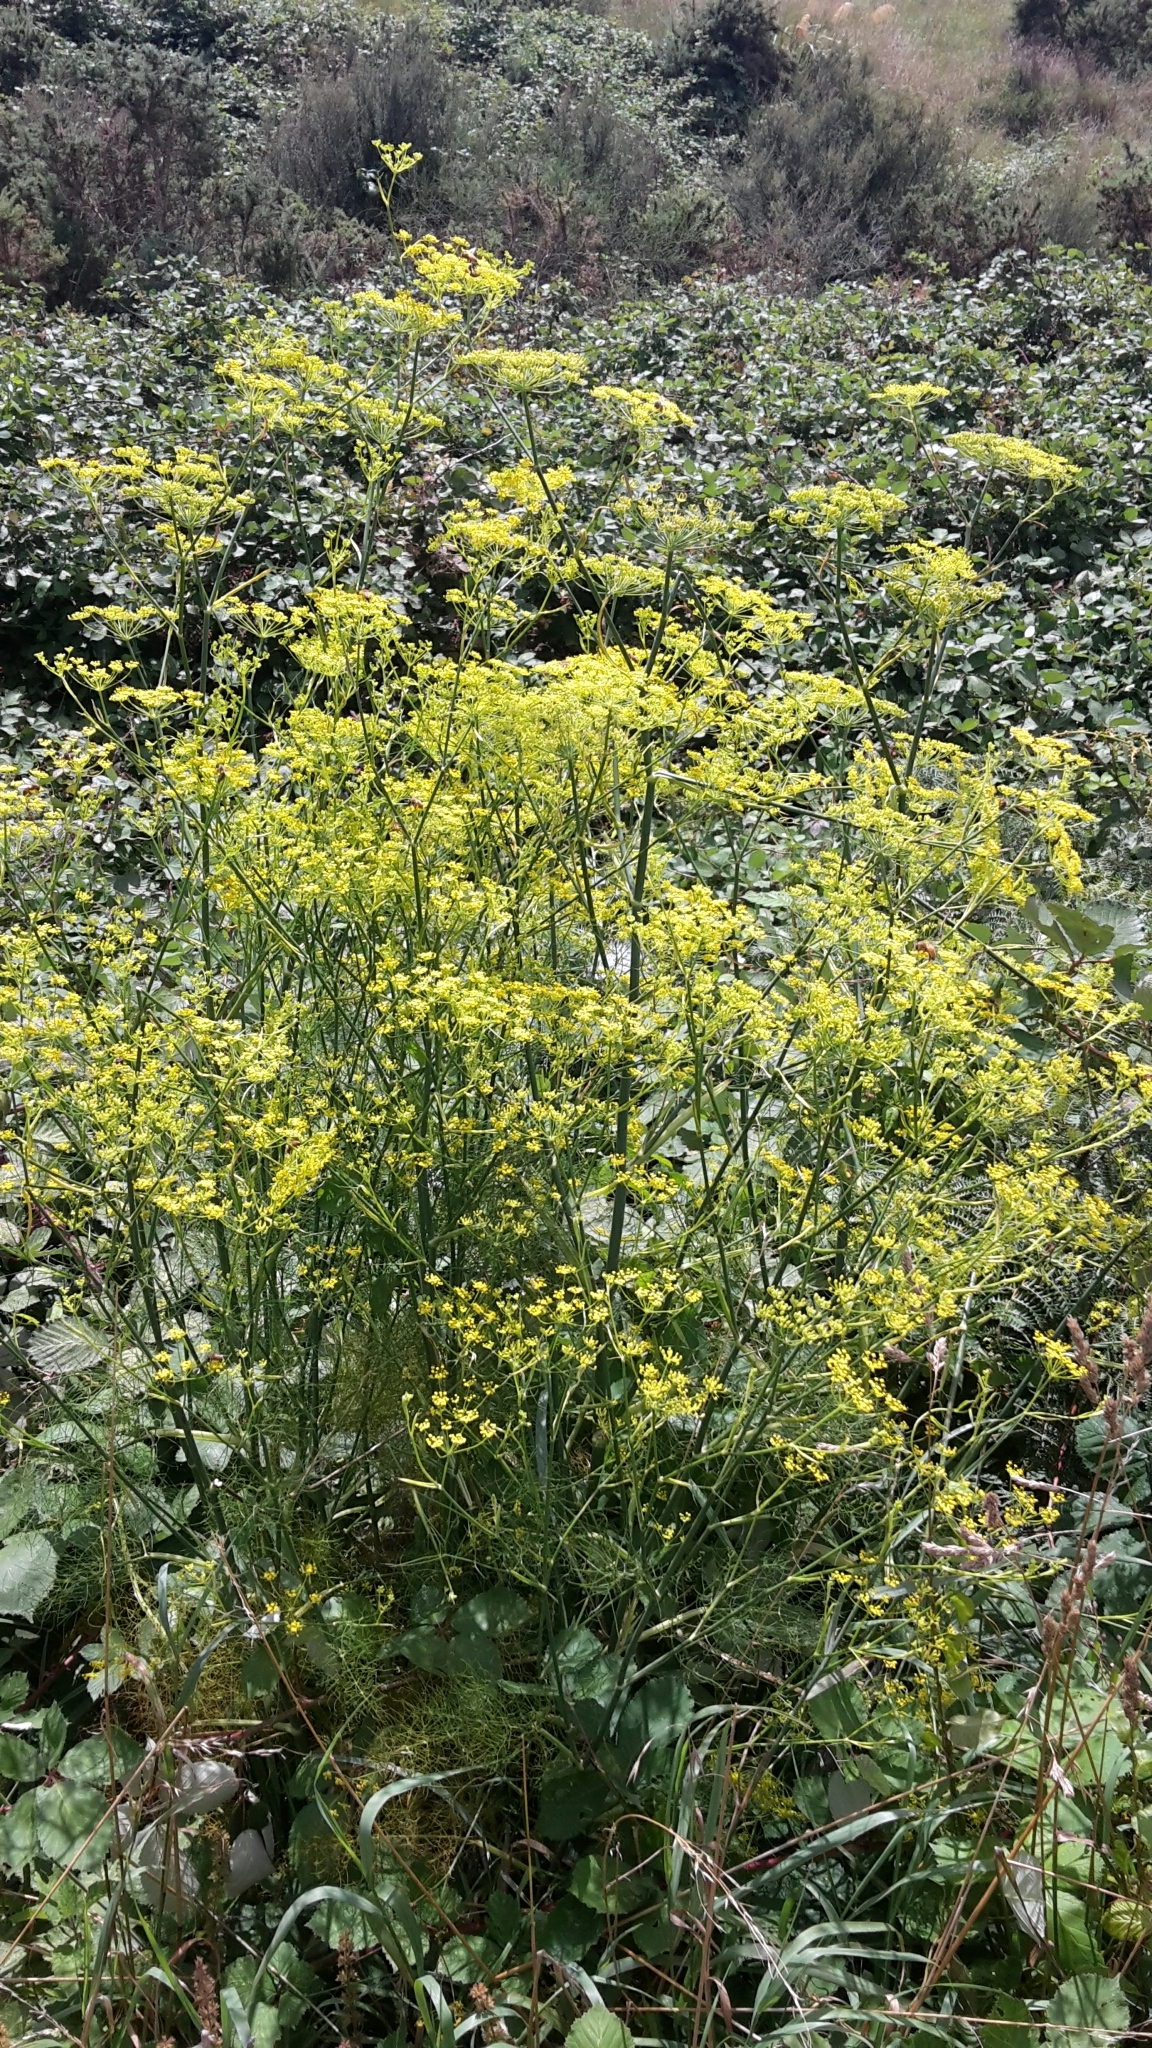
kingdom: Plantae
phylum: Tracheophyta
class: Magnoliopsida
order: Apiales
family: Apiaceae
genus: Foeniculum
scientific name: Foeniculum vulgare
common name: Fennel
